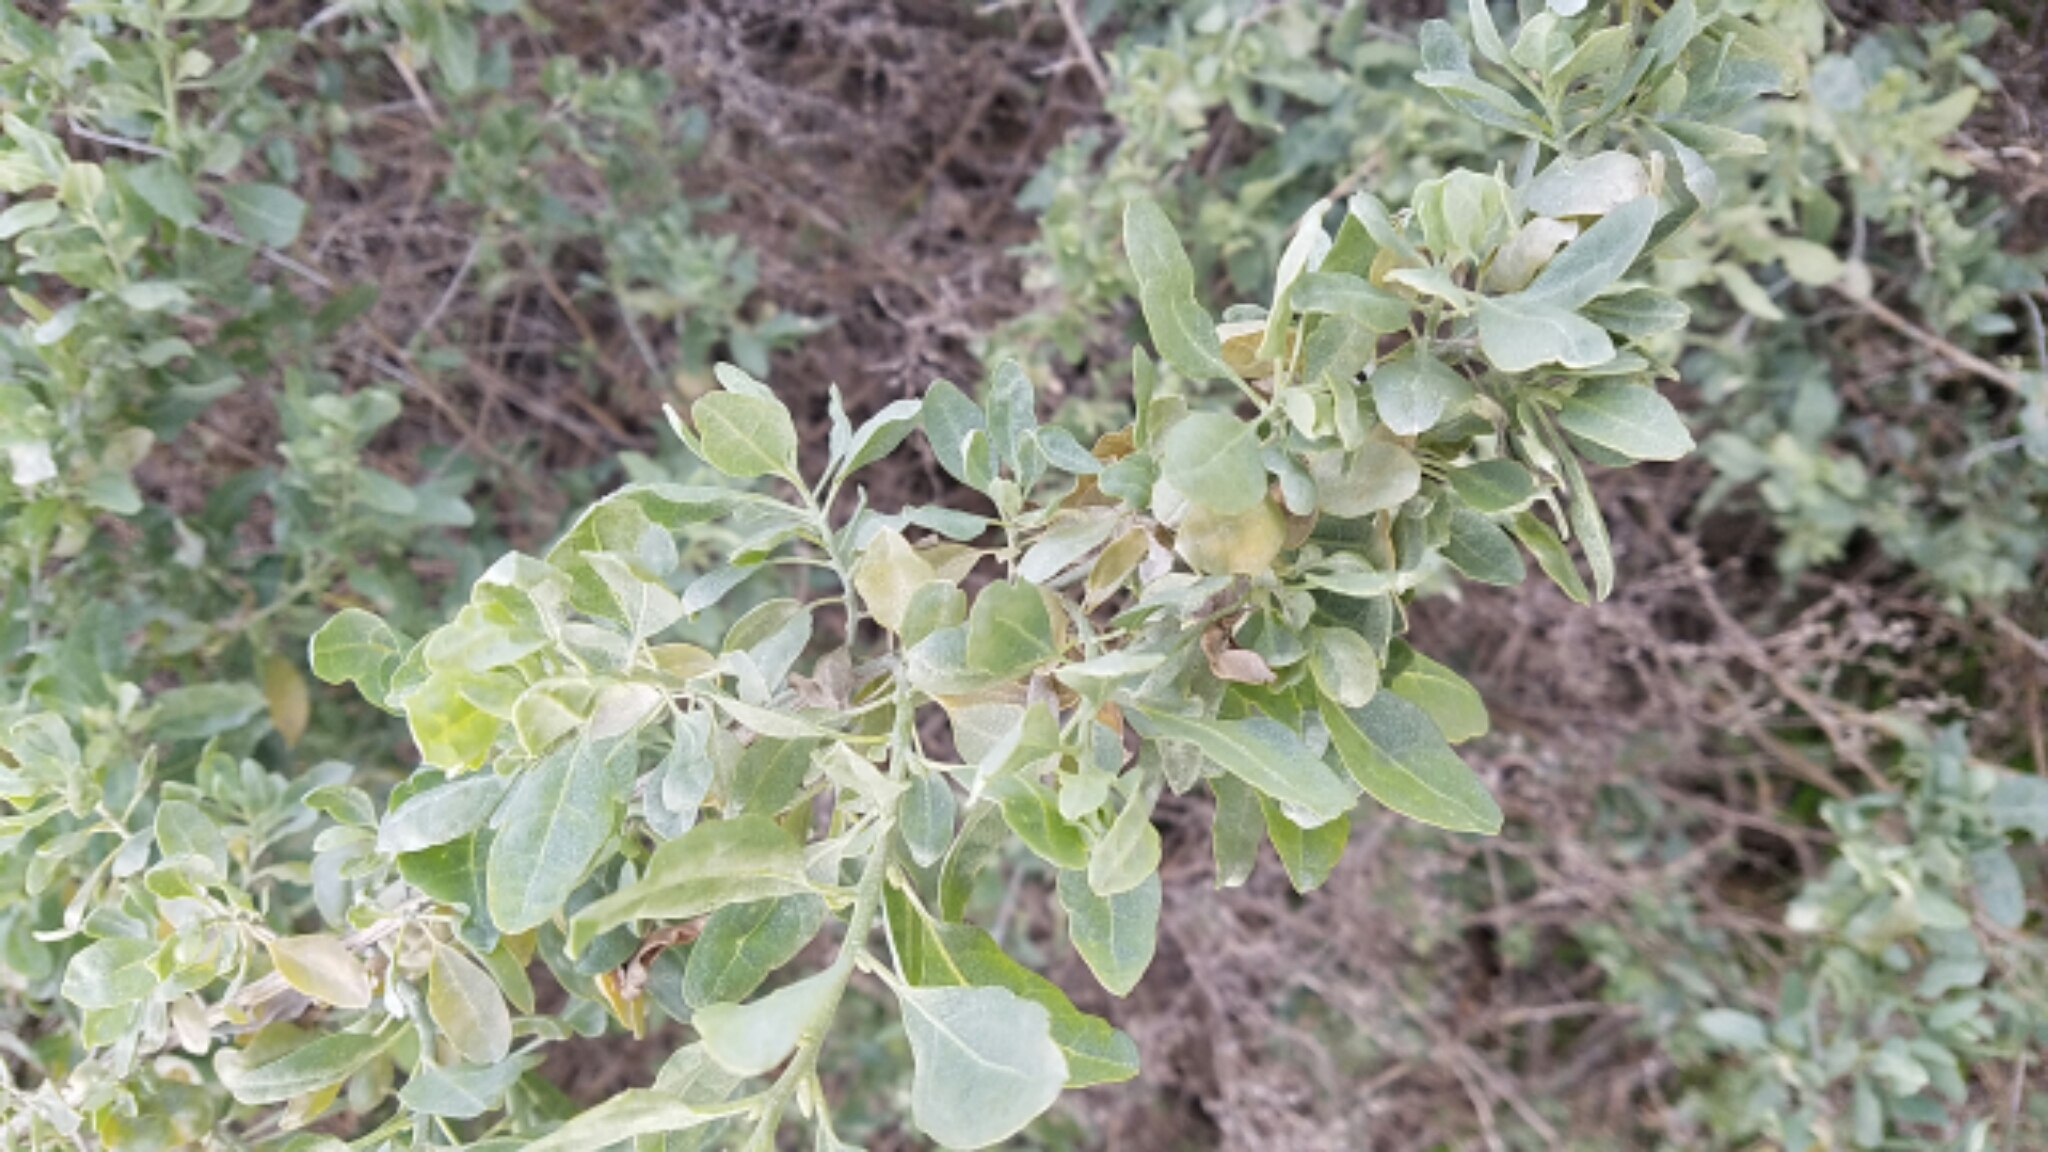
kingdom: Plantae
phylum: Tracheophyta
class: Magnoliopsida
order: Caryophyllales
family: Amaranthaceae
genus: Atriplex
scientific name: Atriplex lentiformis
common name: Big saltbush
